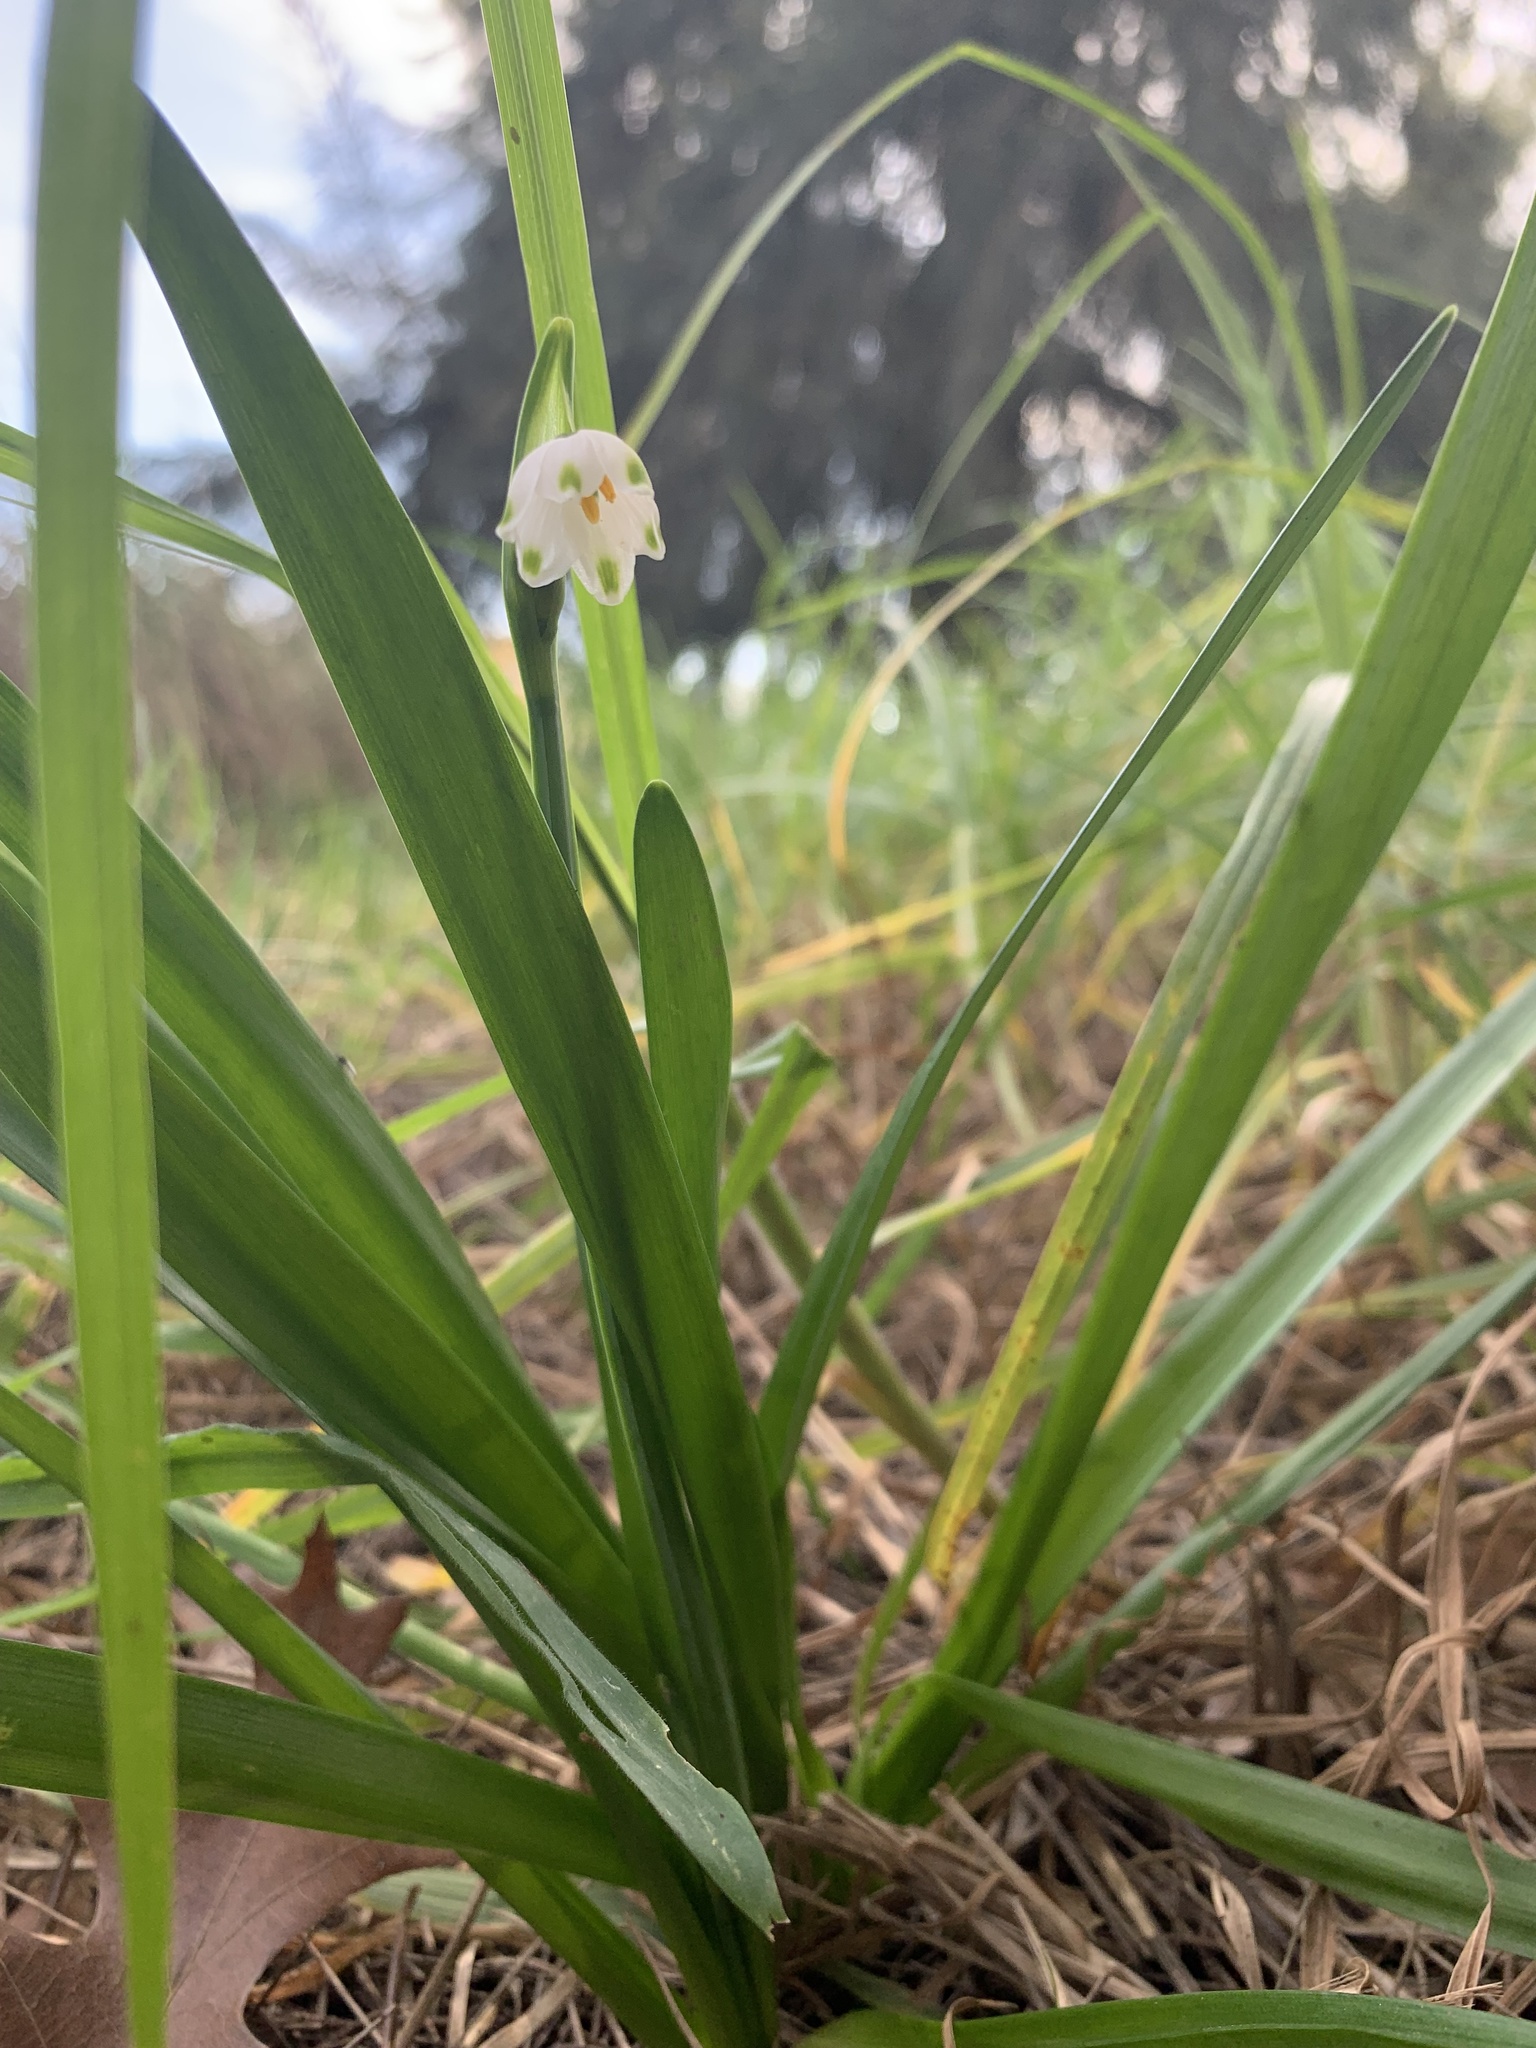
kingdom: Plantae
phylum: Tracheophyta
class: Liliopsida
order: Asparagales
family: Amaryllidaceae
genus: Leucojum
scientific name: Leucojum aestivum
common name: Summer snowflake
